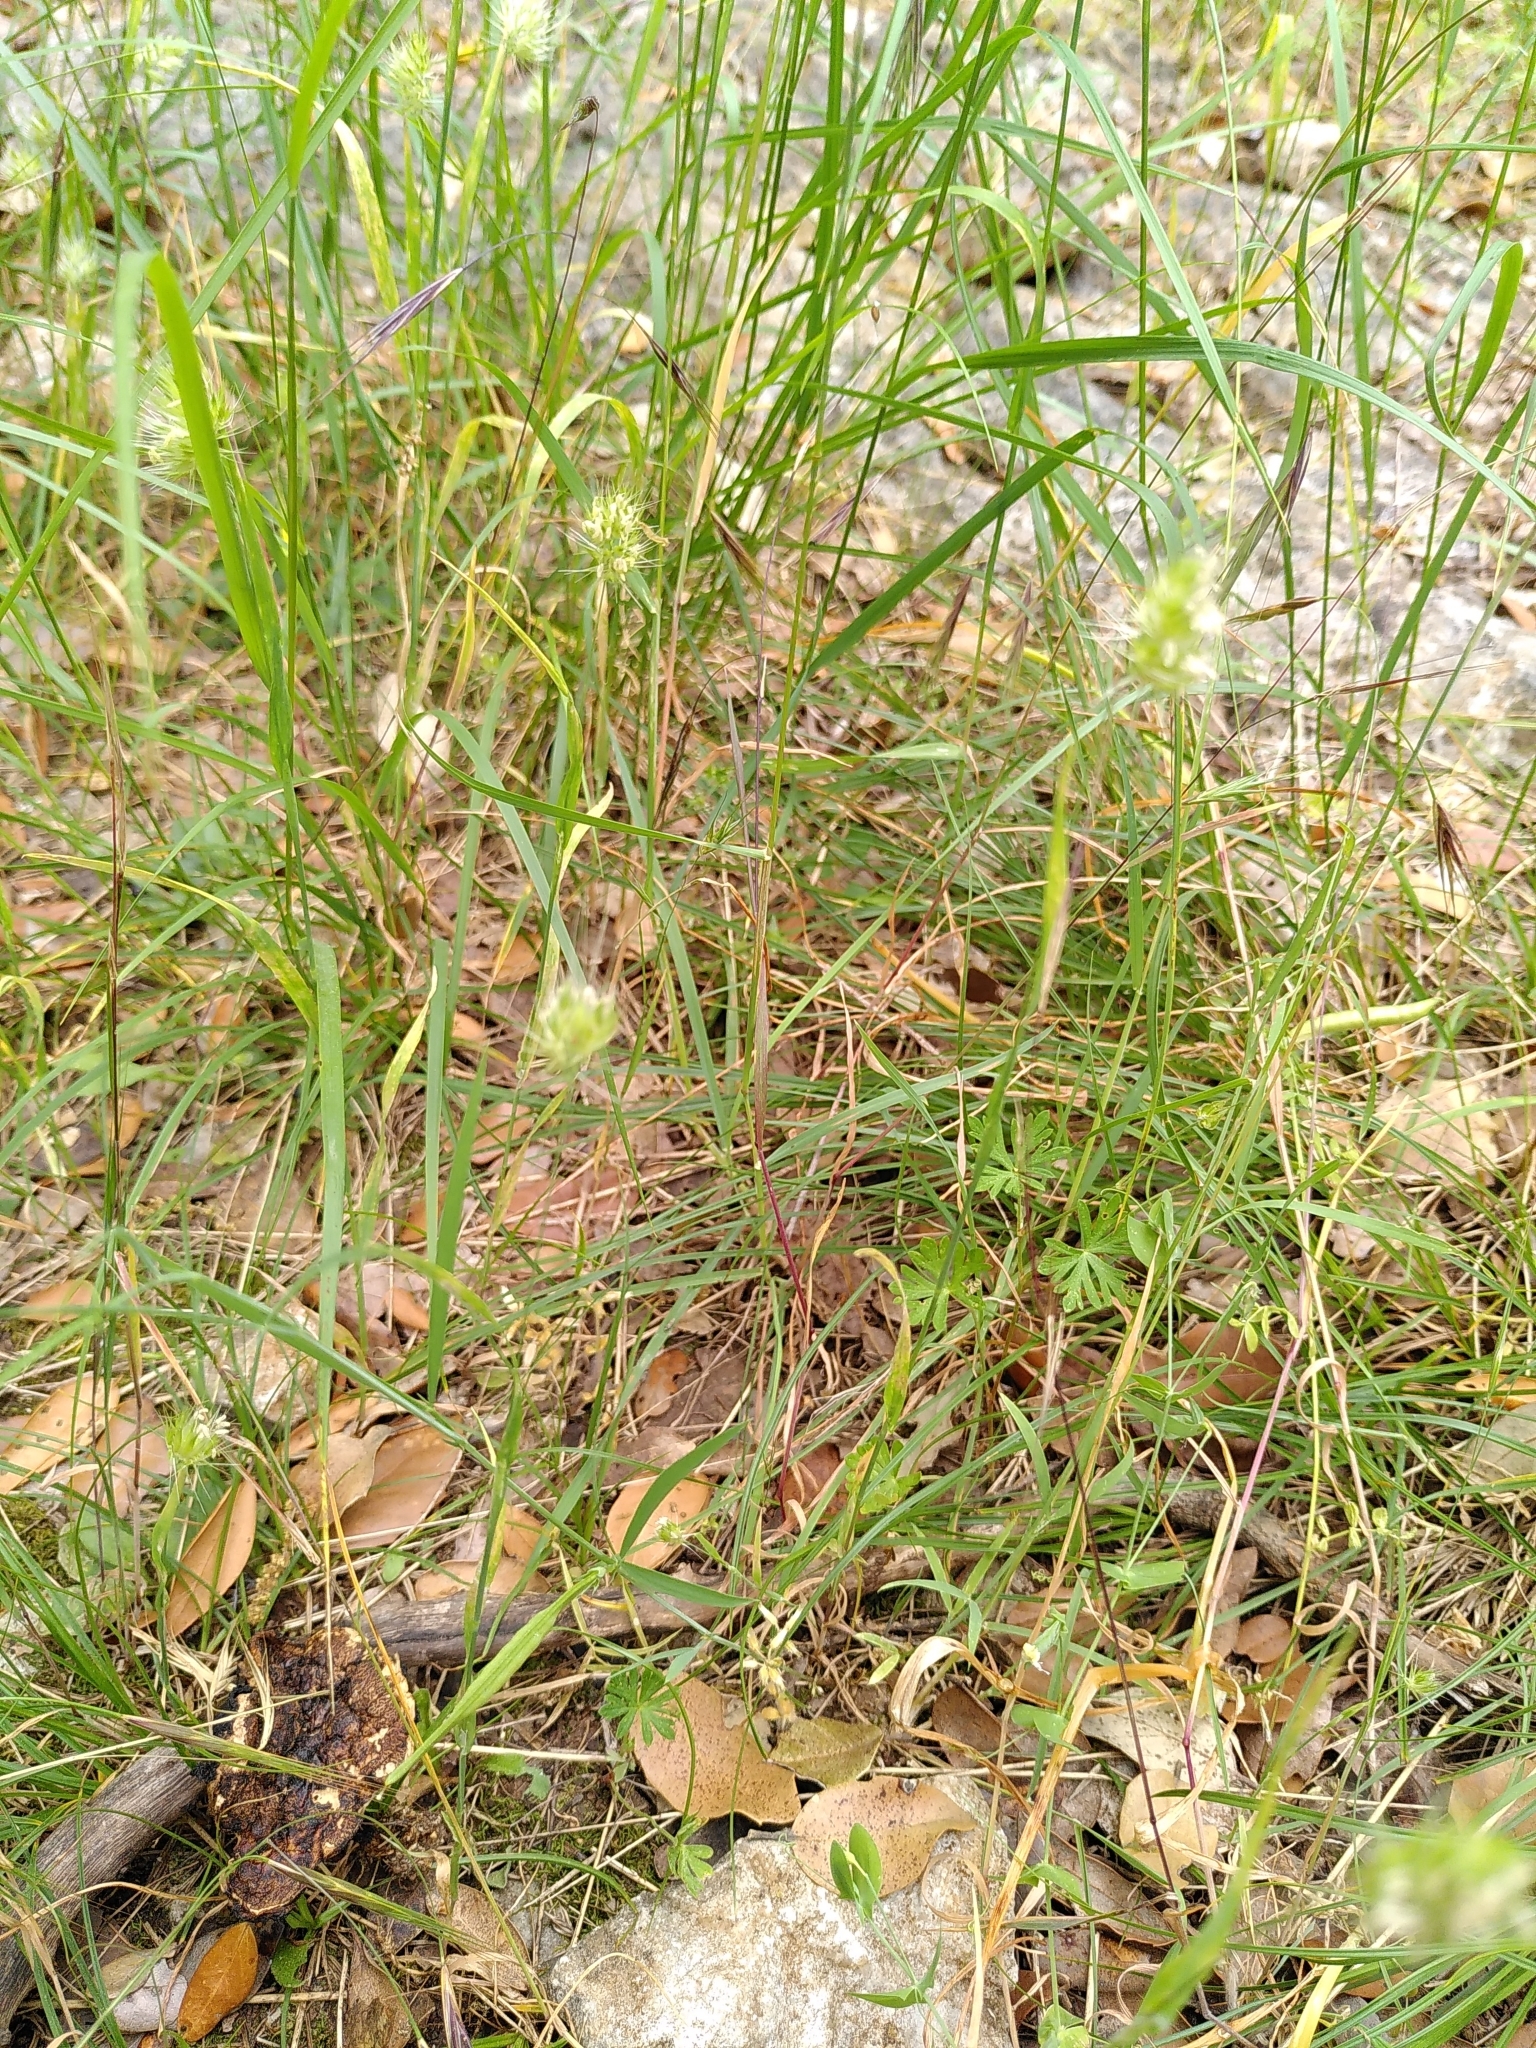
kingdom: Plantae
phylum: Tracheophyta
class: Liliopsida
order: Poales
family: Poaceae
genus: Cynosurus
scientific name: Cynosurus echinatus
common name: Rough dog's-tail
